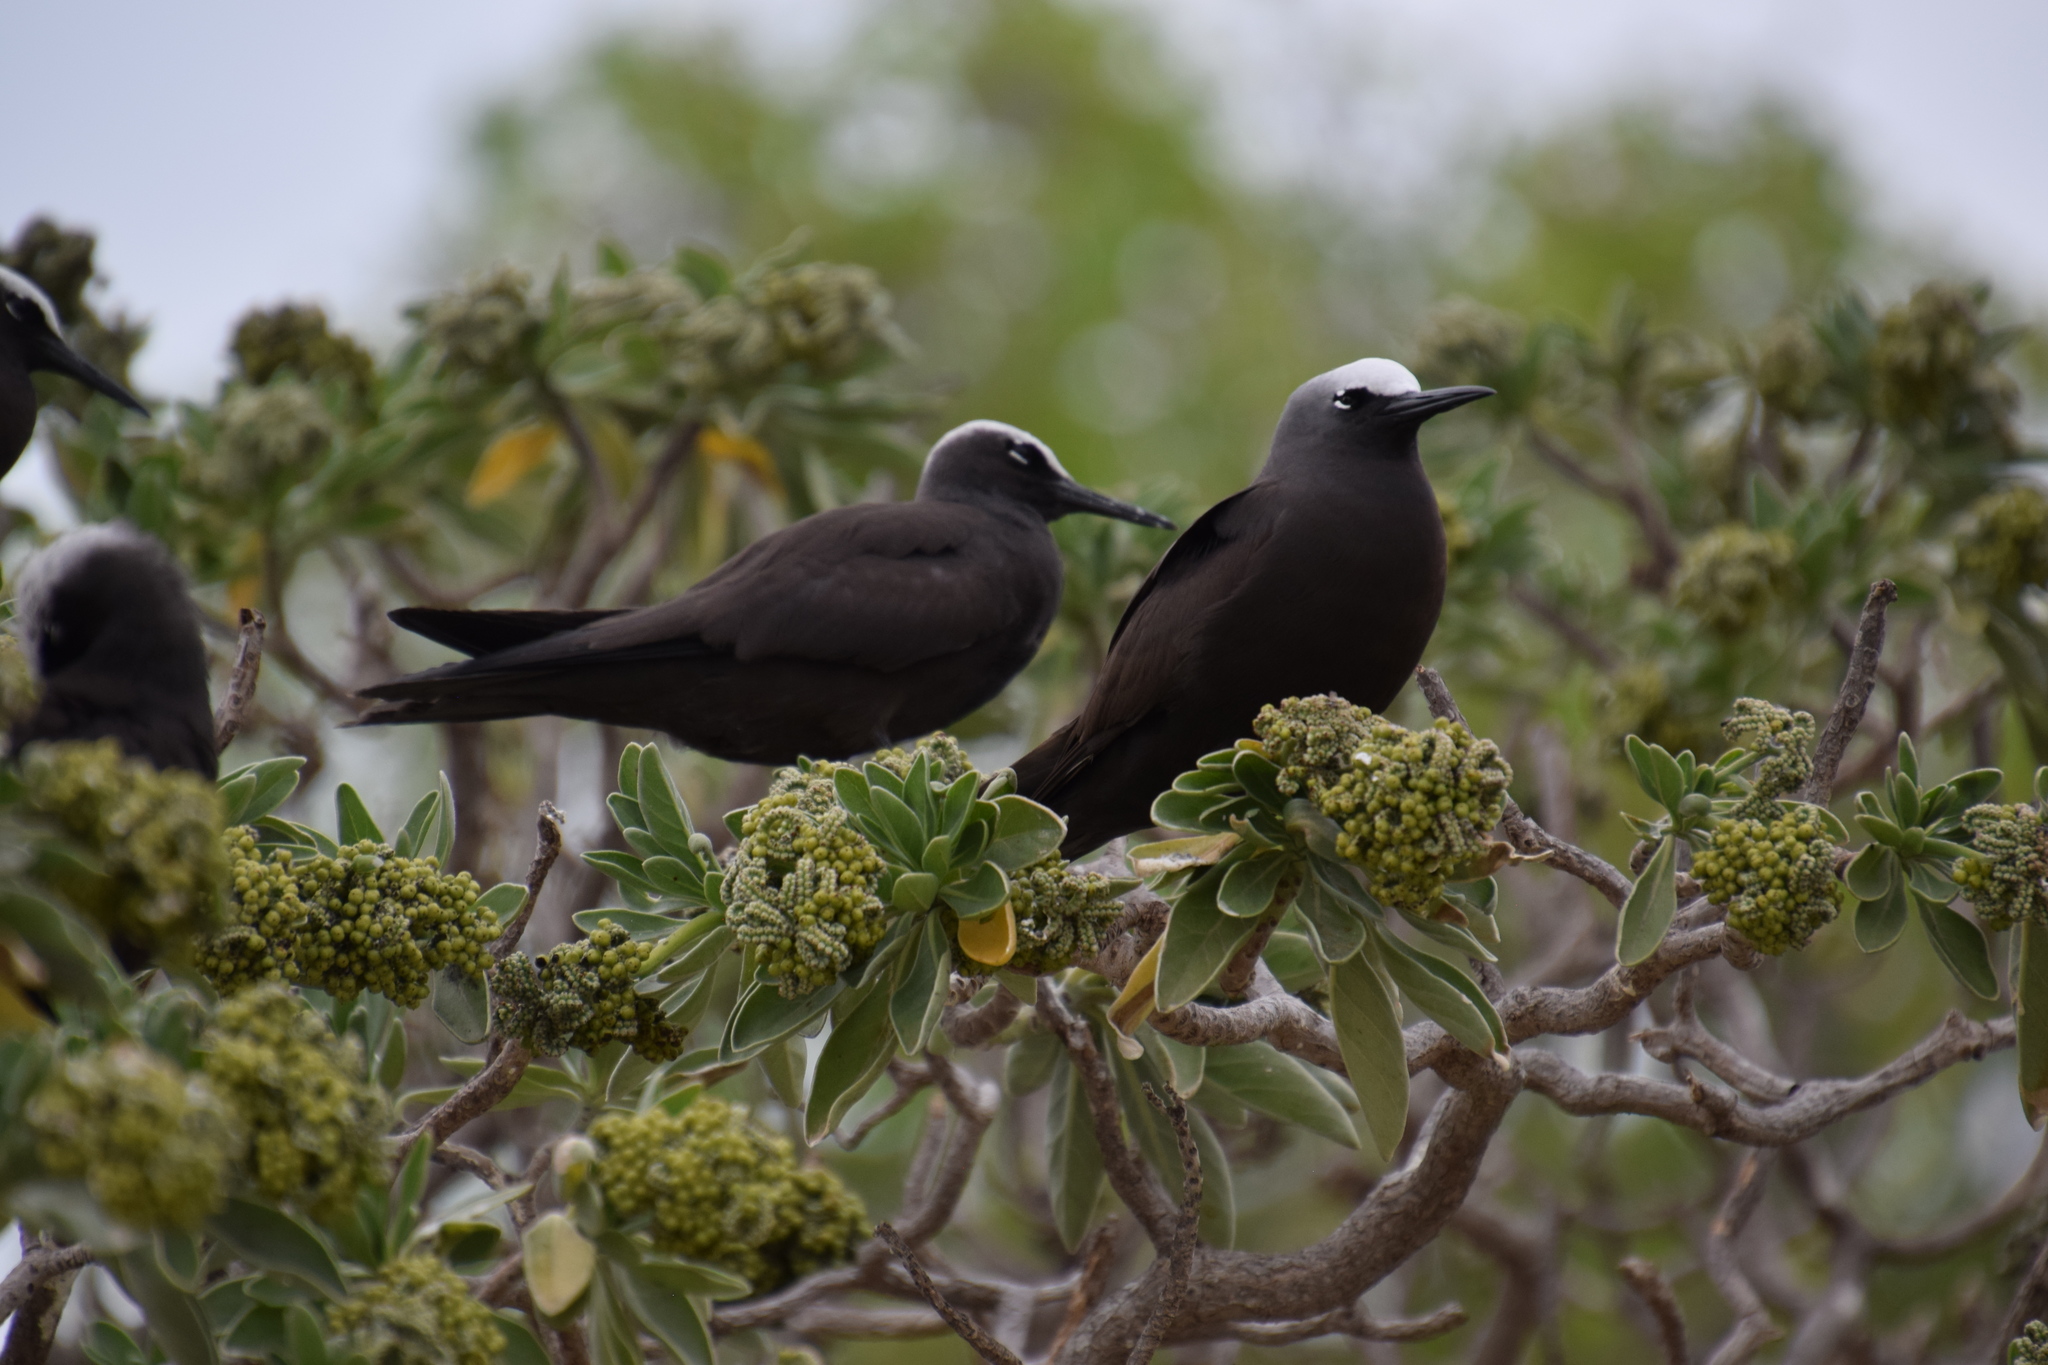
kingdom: Animalia
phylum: Chordata
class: Aves
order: Charadriiformes
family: Laridae
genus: Anous
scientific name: Anous minutus
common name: Black noddy
